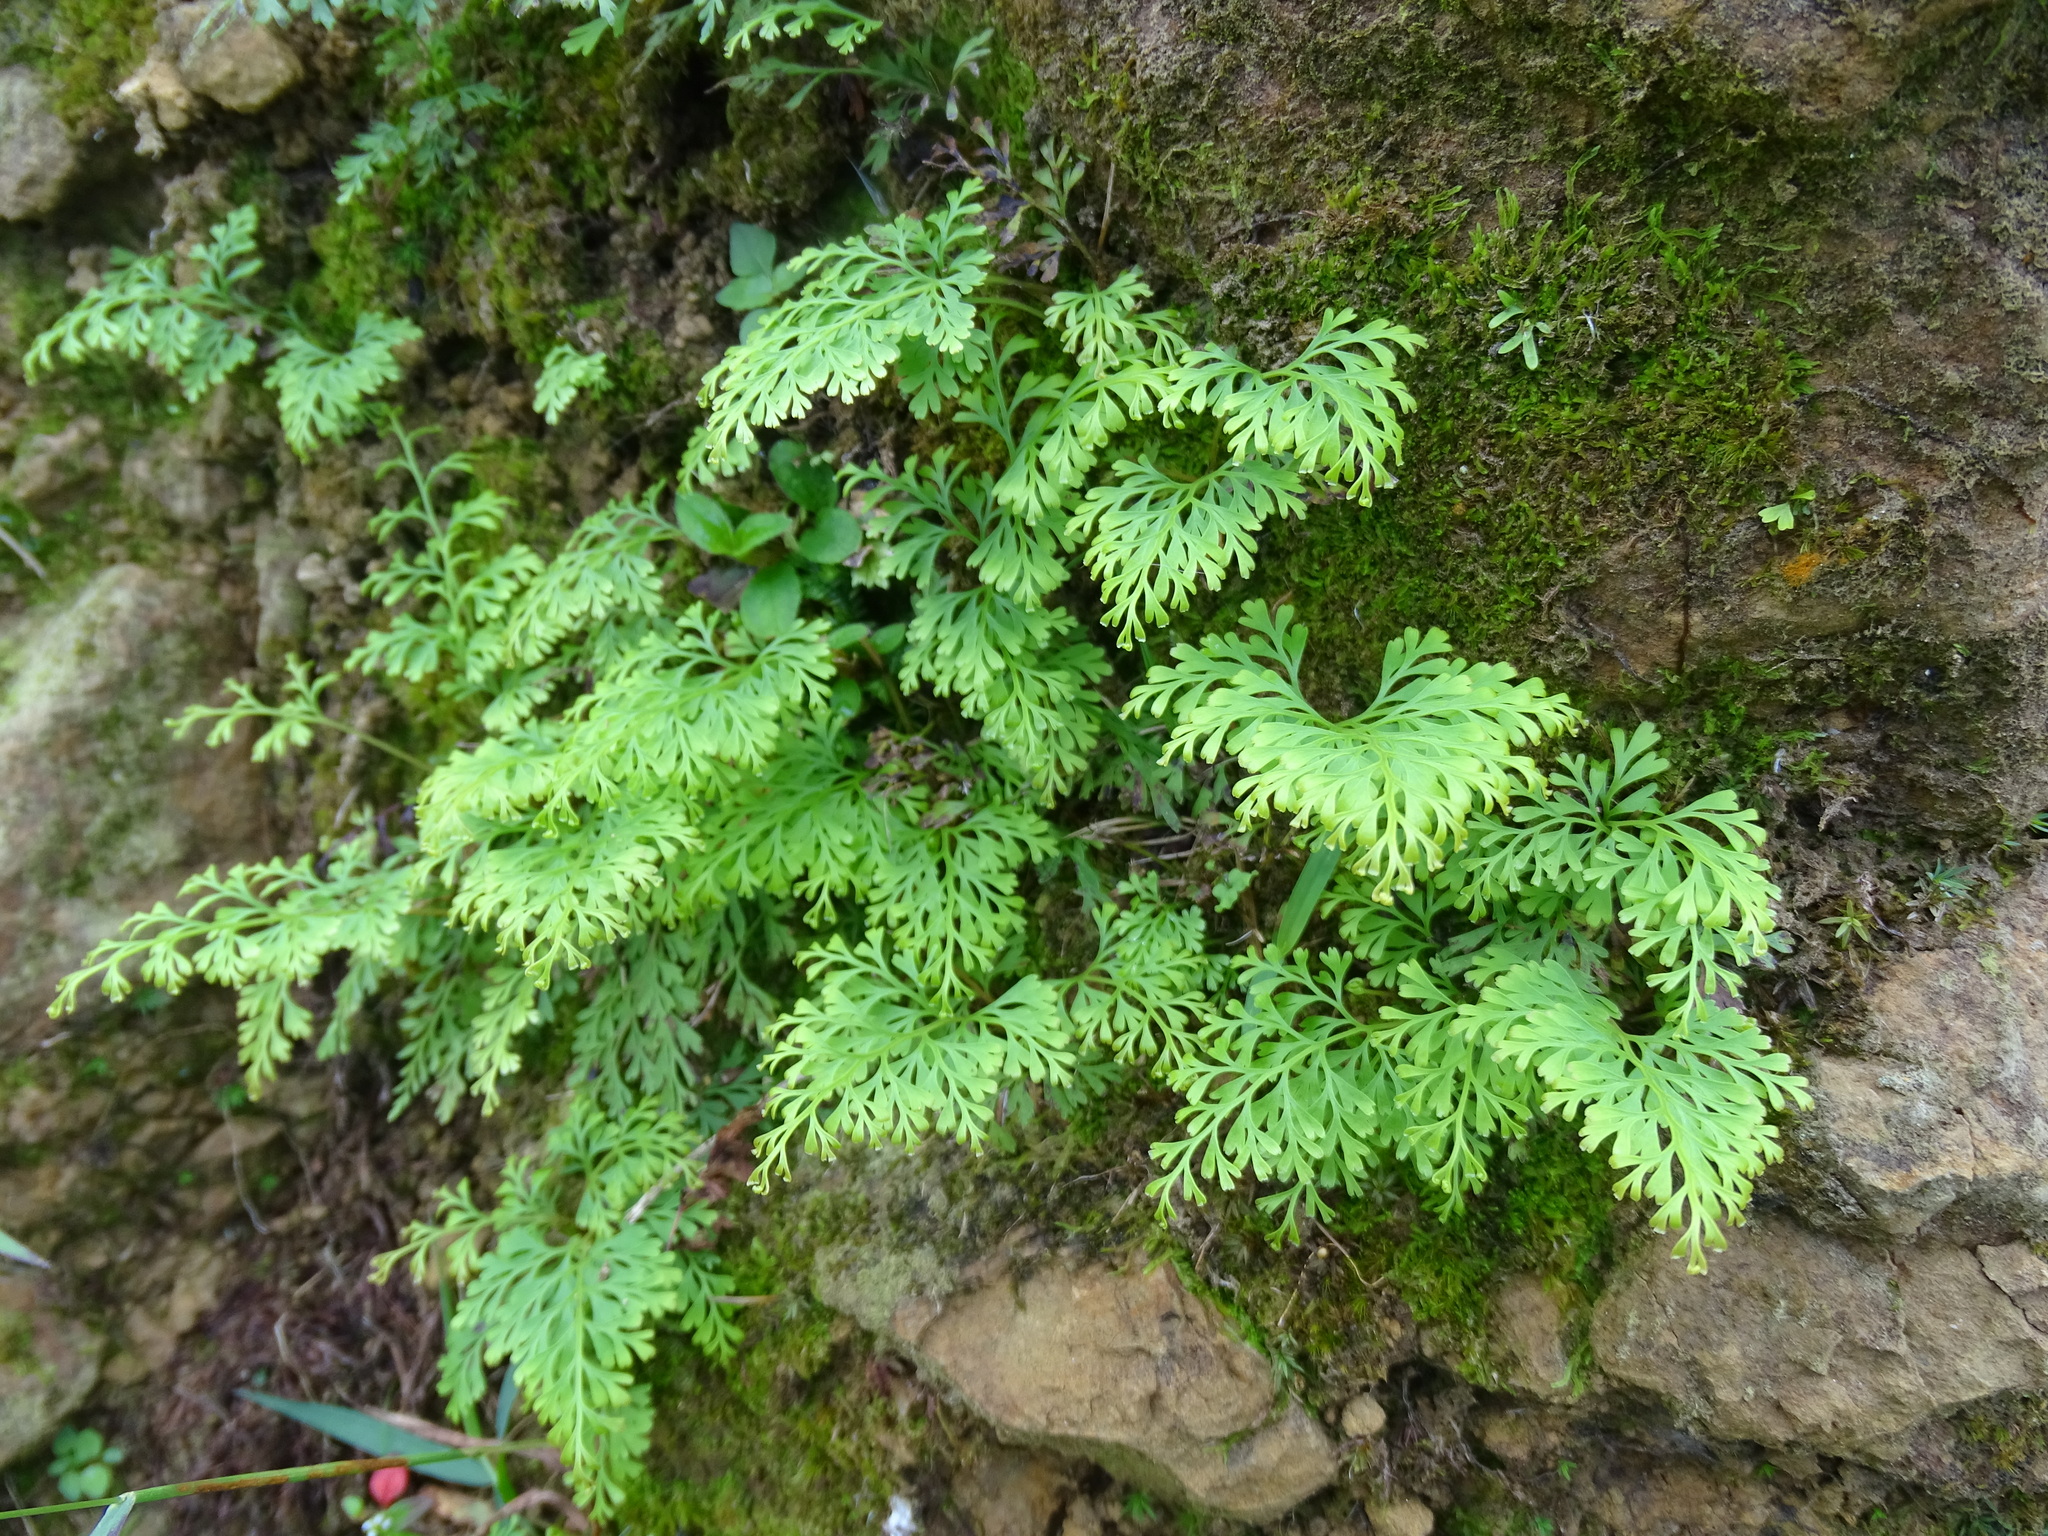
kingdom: Plantae
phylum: Tracheophyta
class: Polypodiopsida
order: Polypodiales
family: Lindsaeaceae
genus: Odontosoria
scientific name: Odontosoria chinensis
